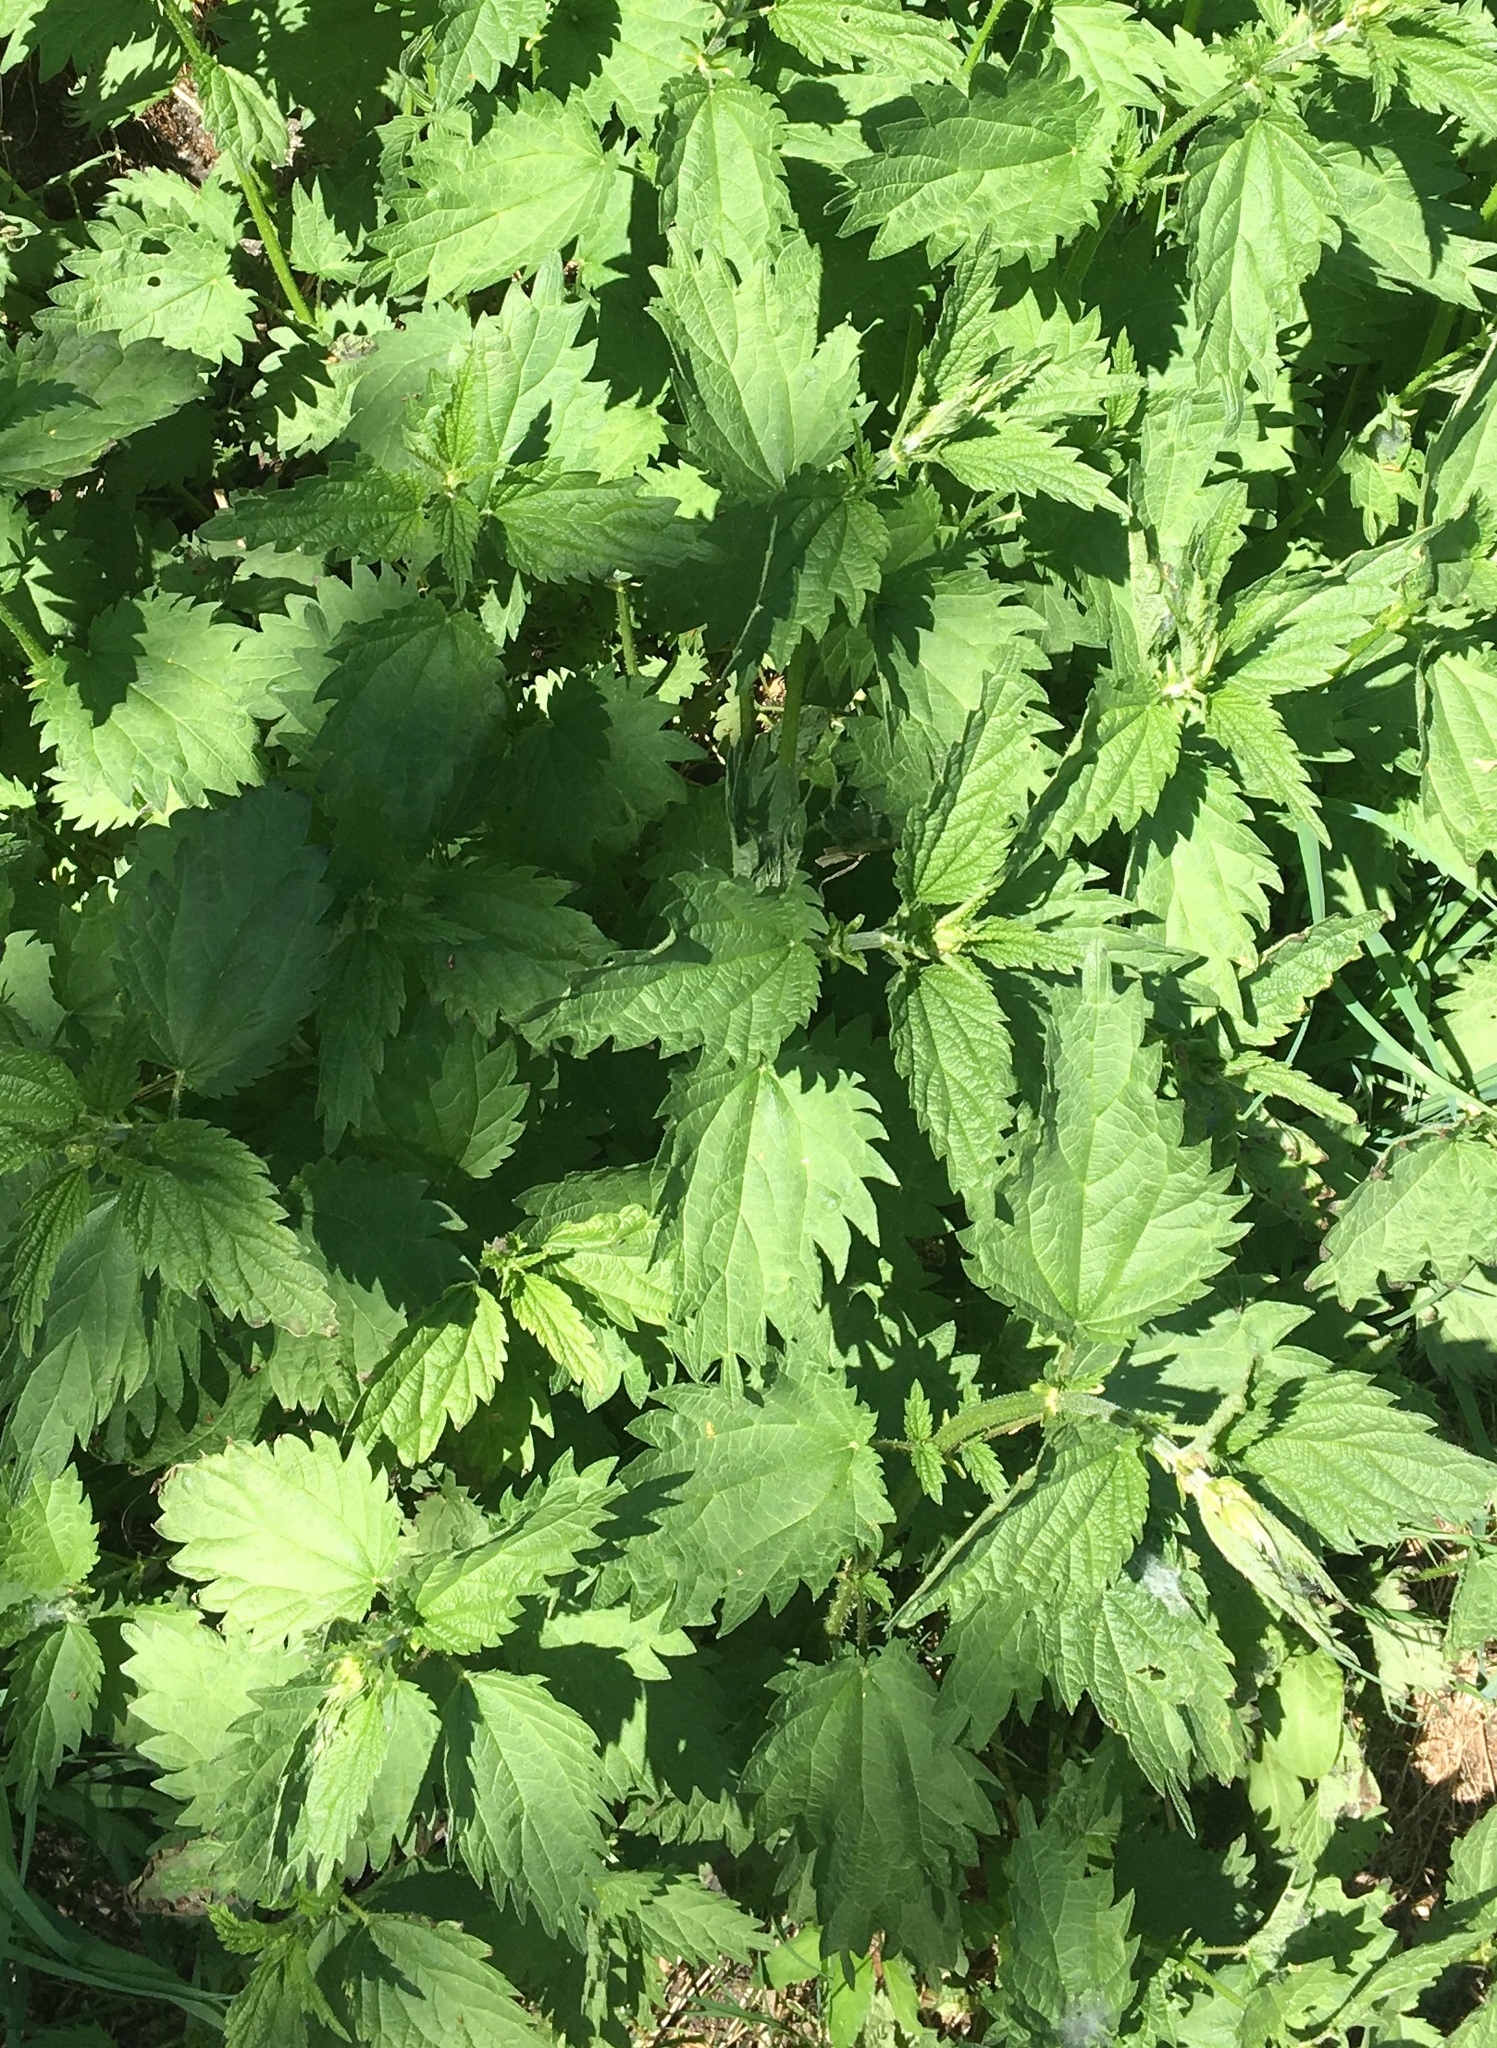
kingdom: Plantae
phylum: Tracheophyta
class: Magnoliopsida
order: Rosales
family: Urticaceae
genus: Urtica
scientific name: Urtica dioica
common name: Common nettle
